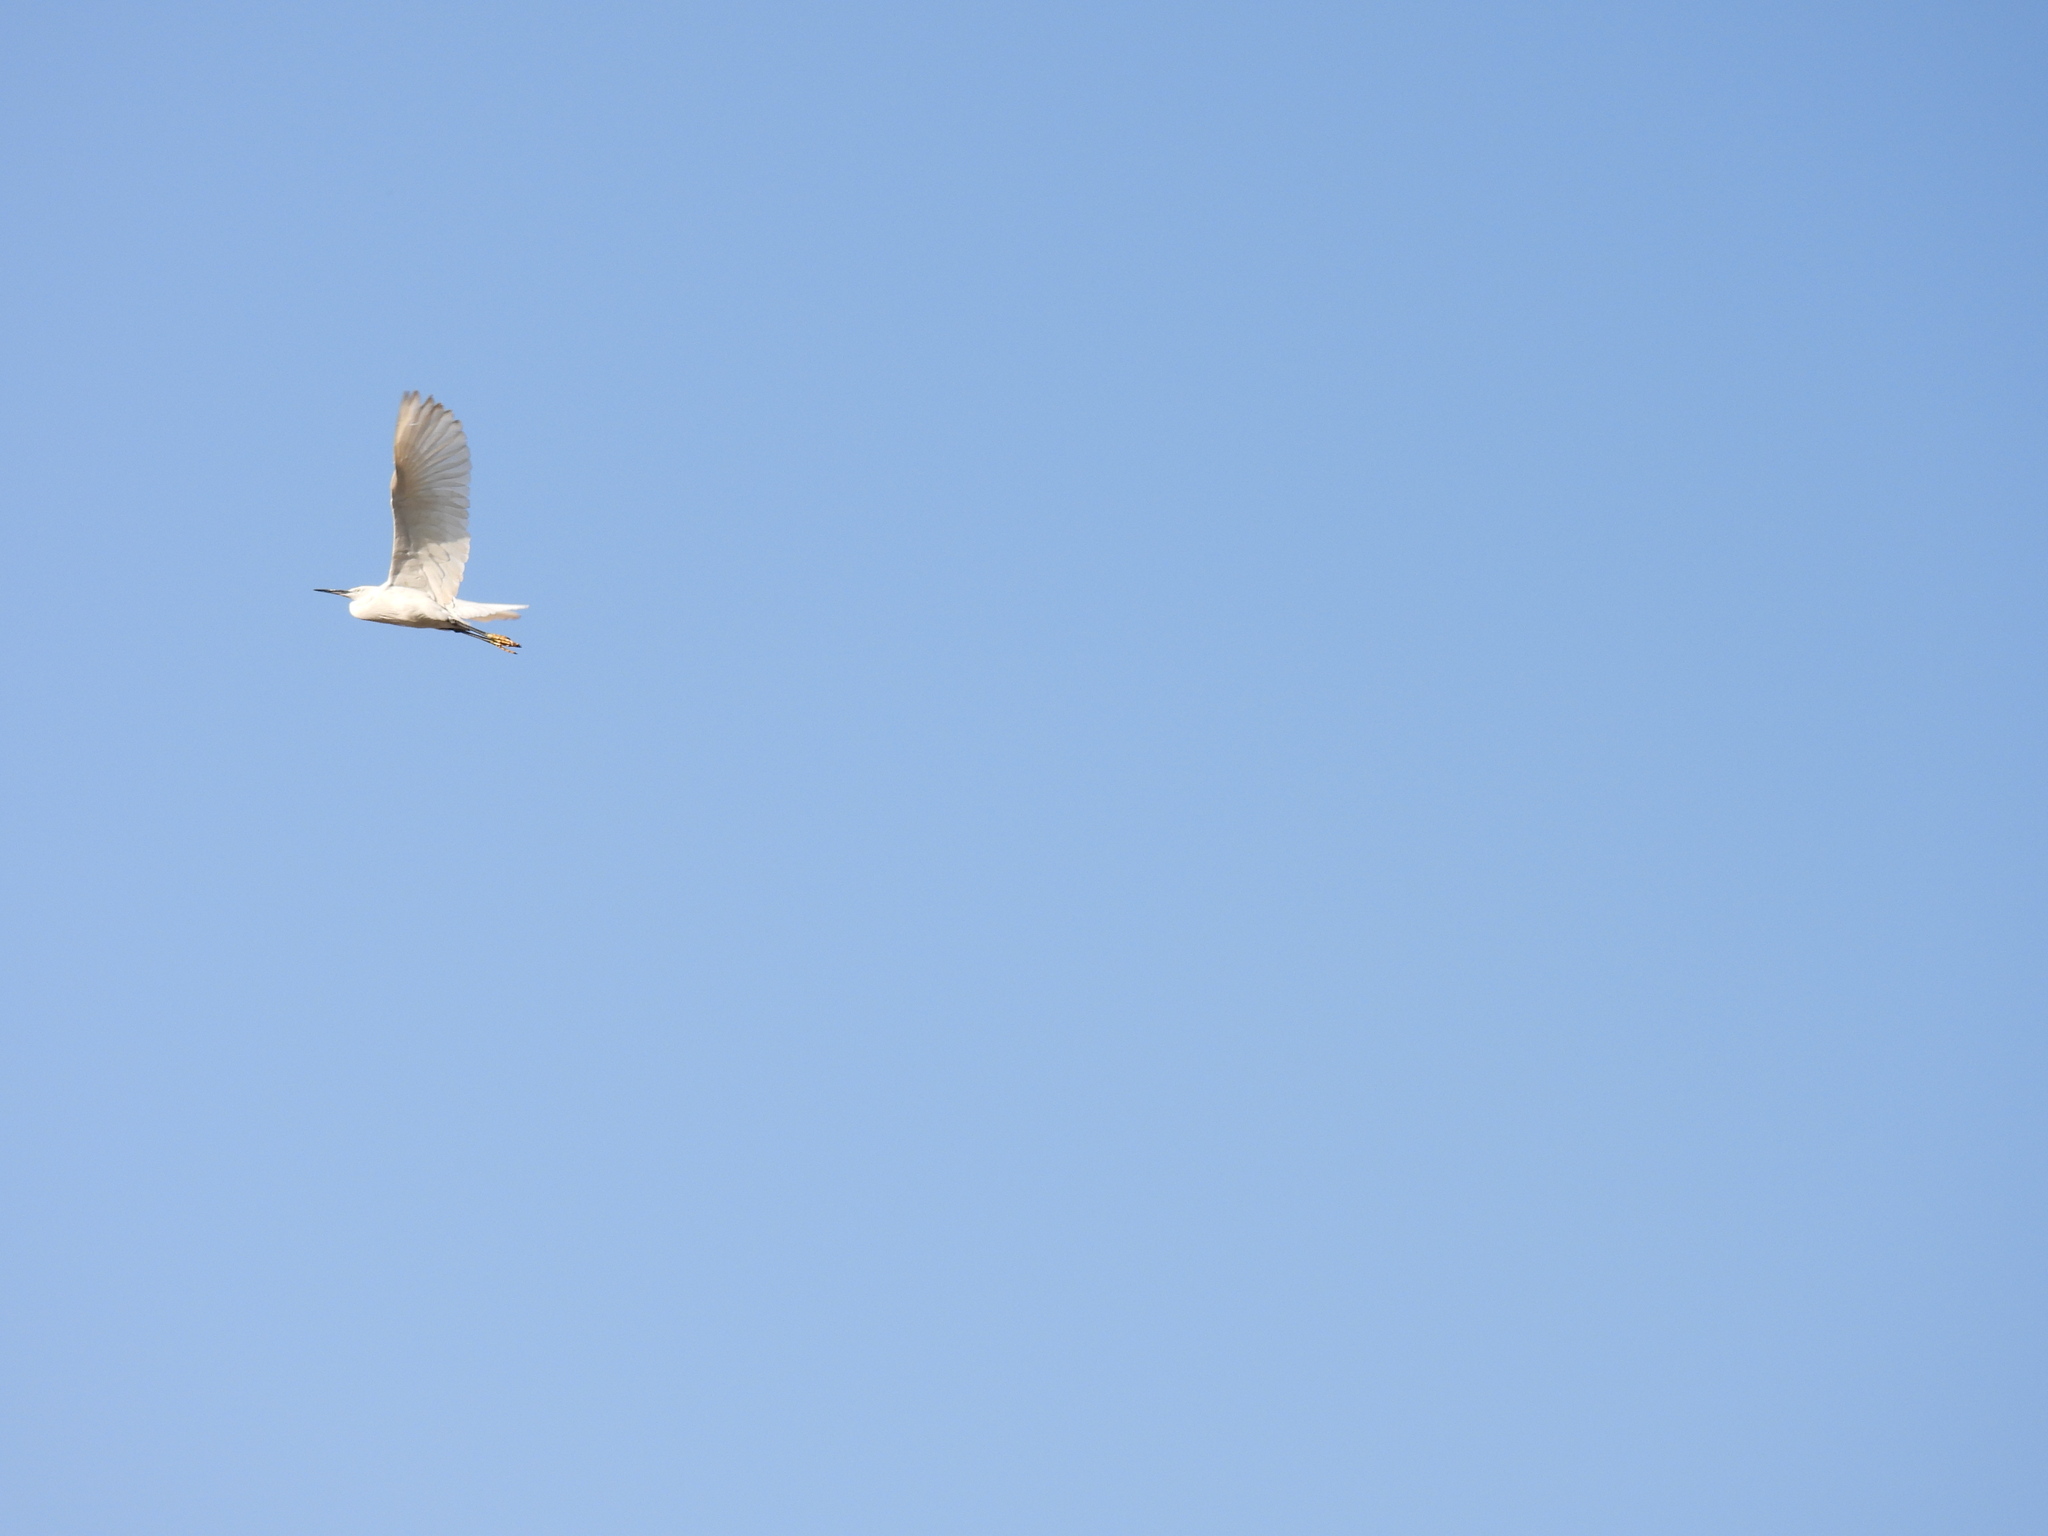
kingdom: Animalia
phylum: Chordata
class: Aves
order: Pelecaniformes
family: Ardeidae
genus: Egretta
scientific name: Egretta garzetta
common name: Little egret
